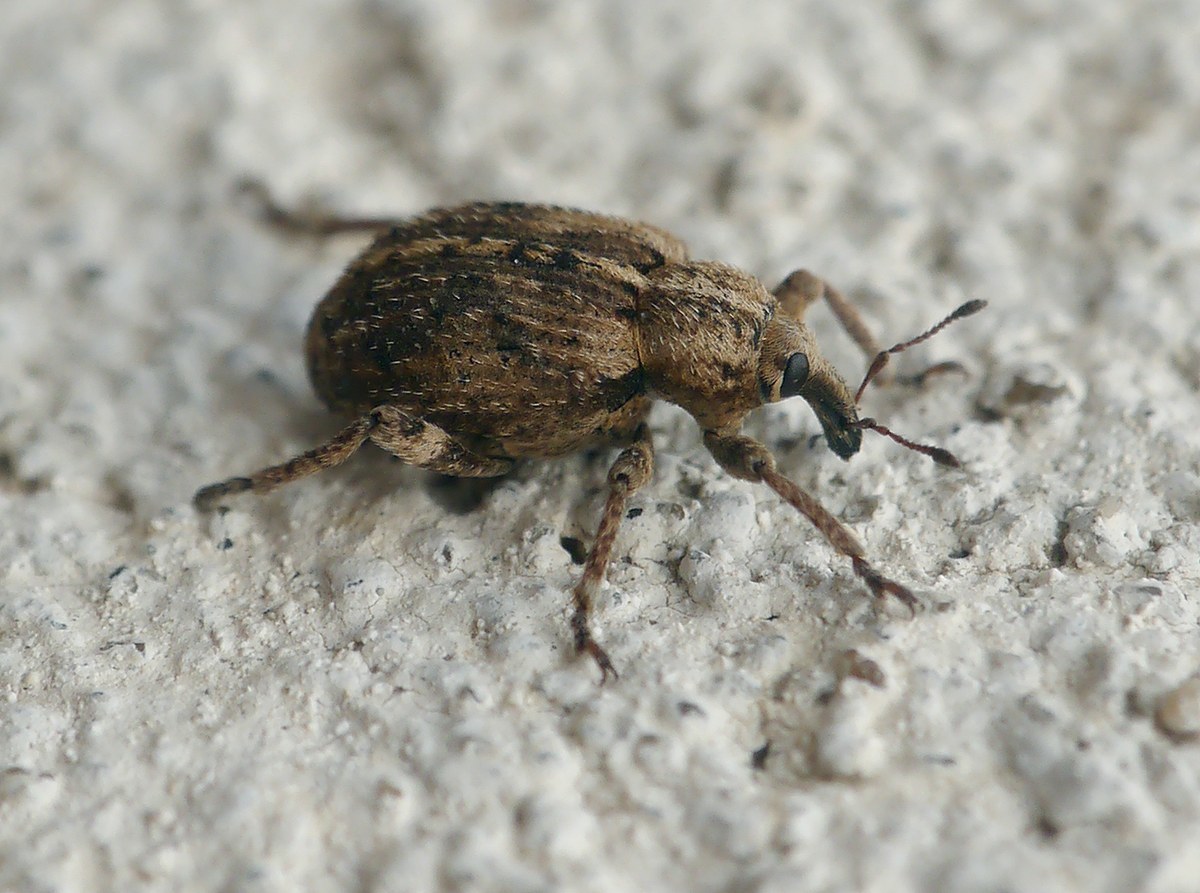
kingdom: Animalia
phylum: Arthropoda
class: Insecta
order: Coleoptera
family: Curculionidae
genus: Brachypera
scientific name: Brachypera dauci
